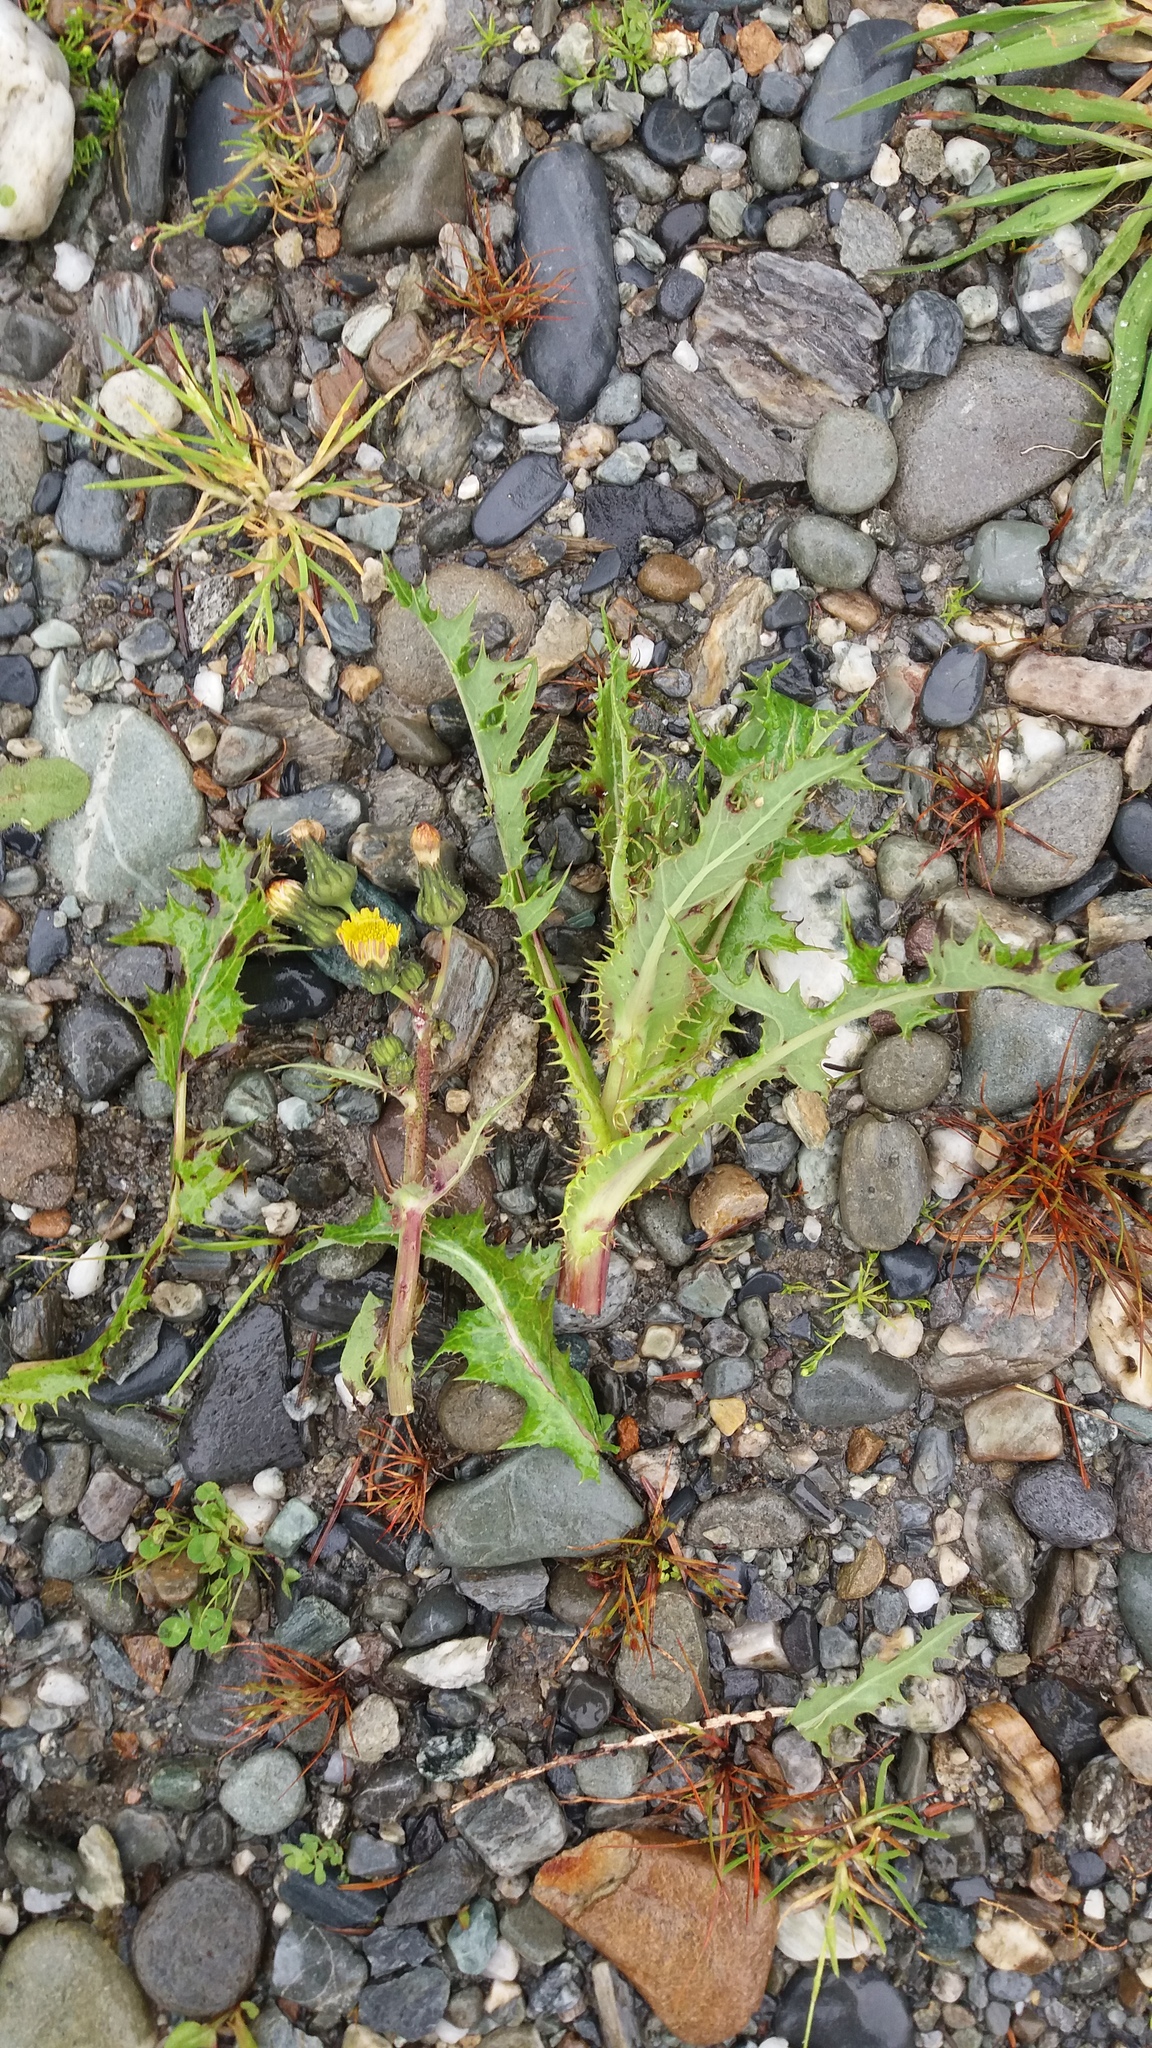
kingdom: Plantae
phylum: Tracheophyta
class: Magnoliopsida
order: Asterales
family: Asteraceae
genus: Sonchus
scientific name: Sonchus asper
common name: Prickly sow-thistle
